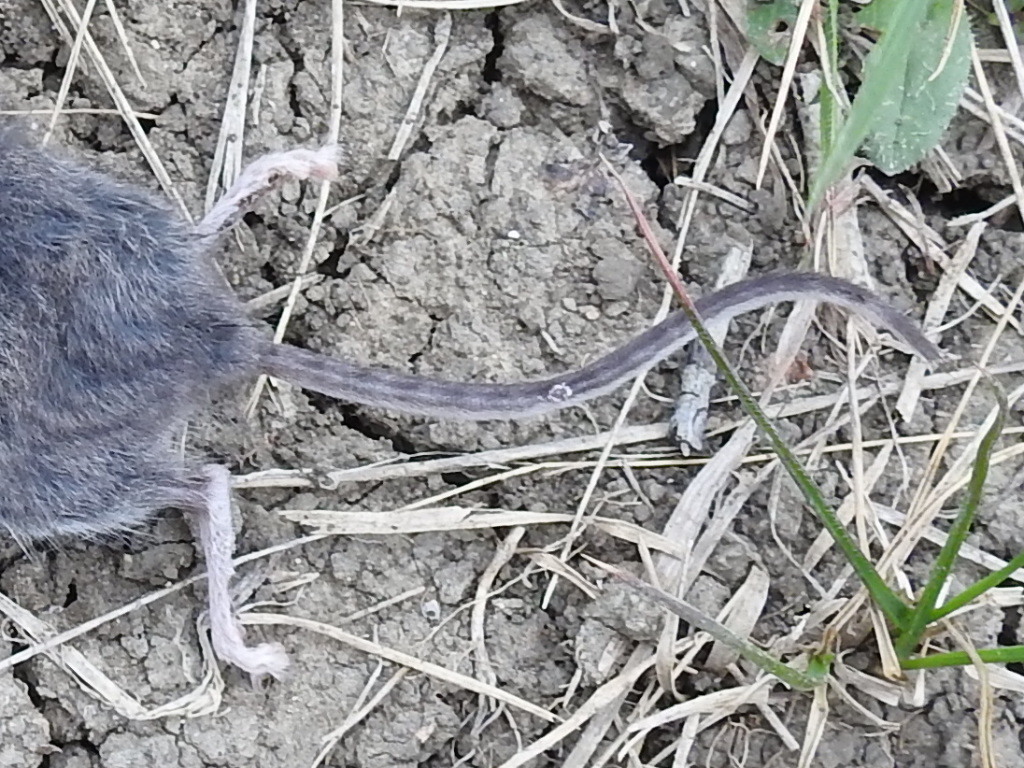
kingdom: Animalia
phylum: Chordata
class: Mammalia
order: Rodentia
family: Cricetidae
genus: Baiomys
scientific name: Baiomys taylori
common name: Northern pygmy mouse
